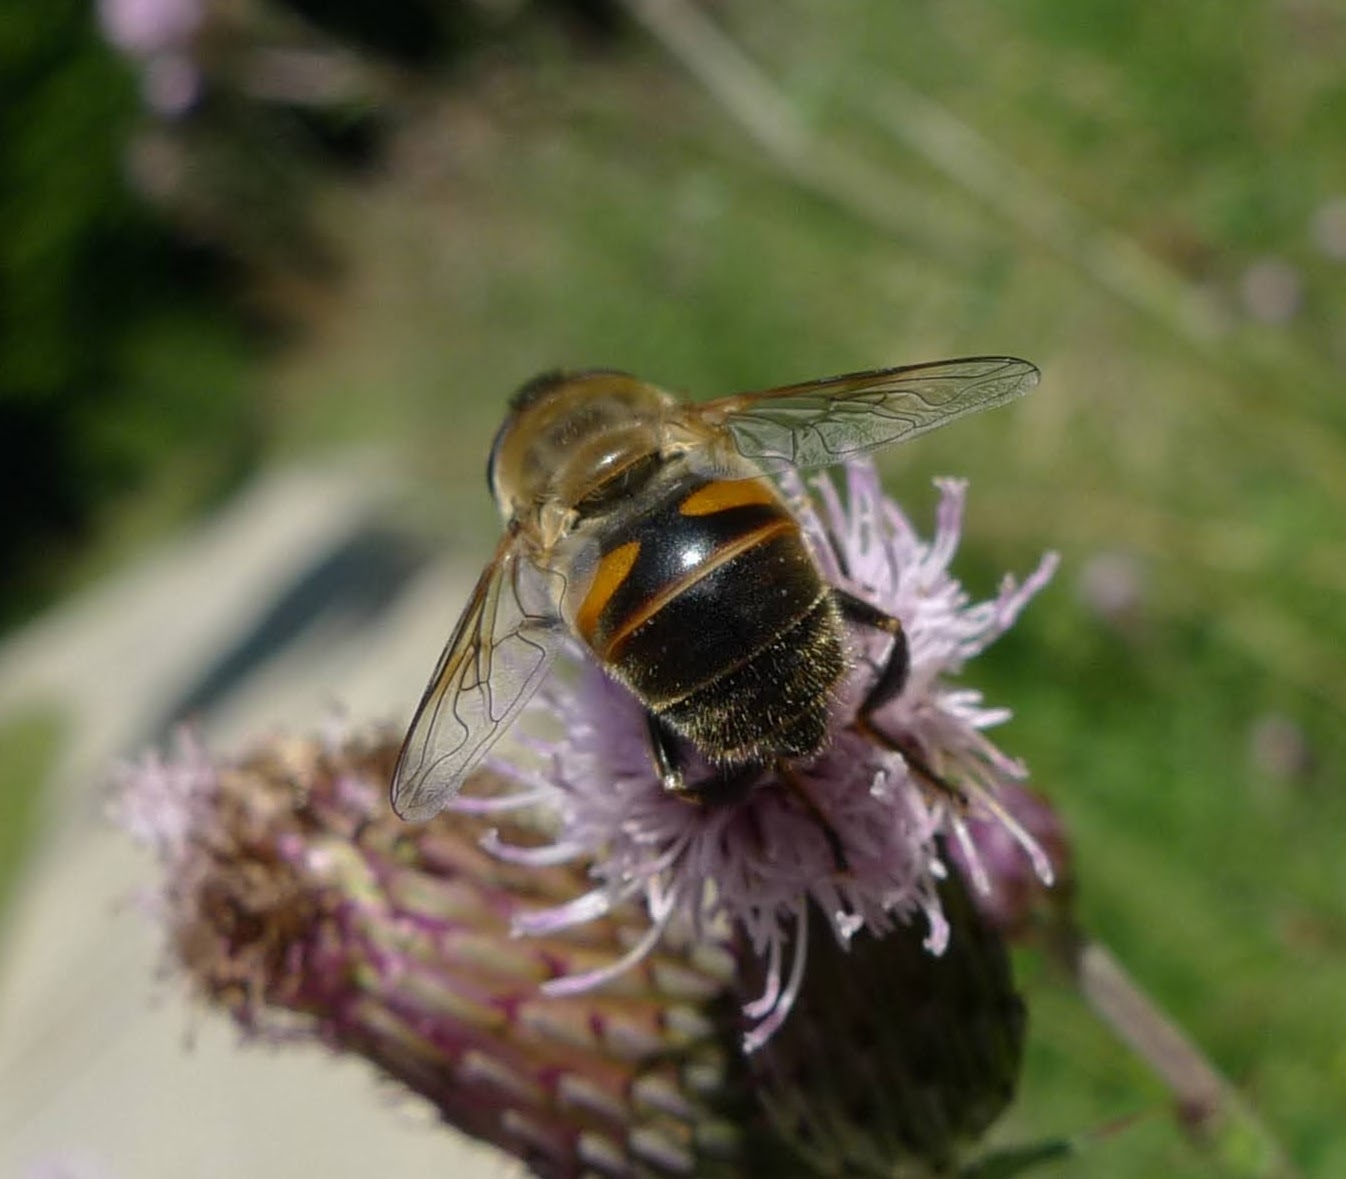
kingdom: Animalia
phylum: Arthropoda
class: Insecta
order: Diptera
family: Syrphidae
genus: Eristalis
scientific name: Eristalis tenax
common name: Drone fly
